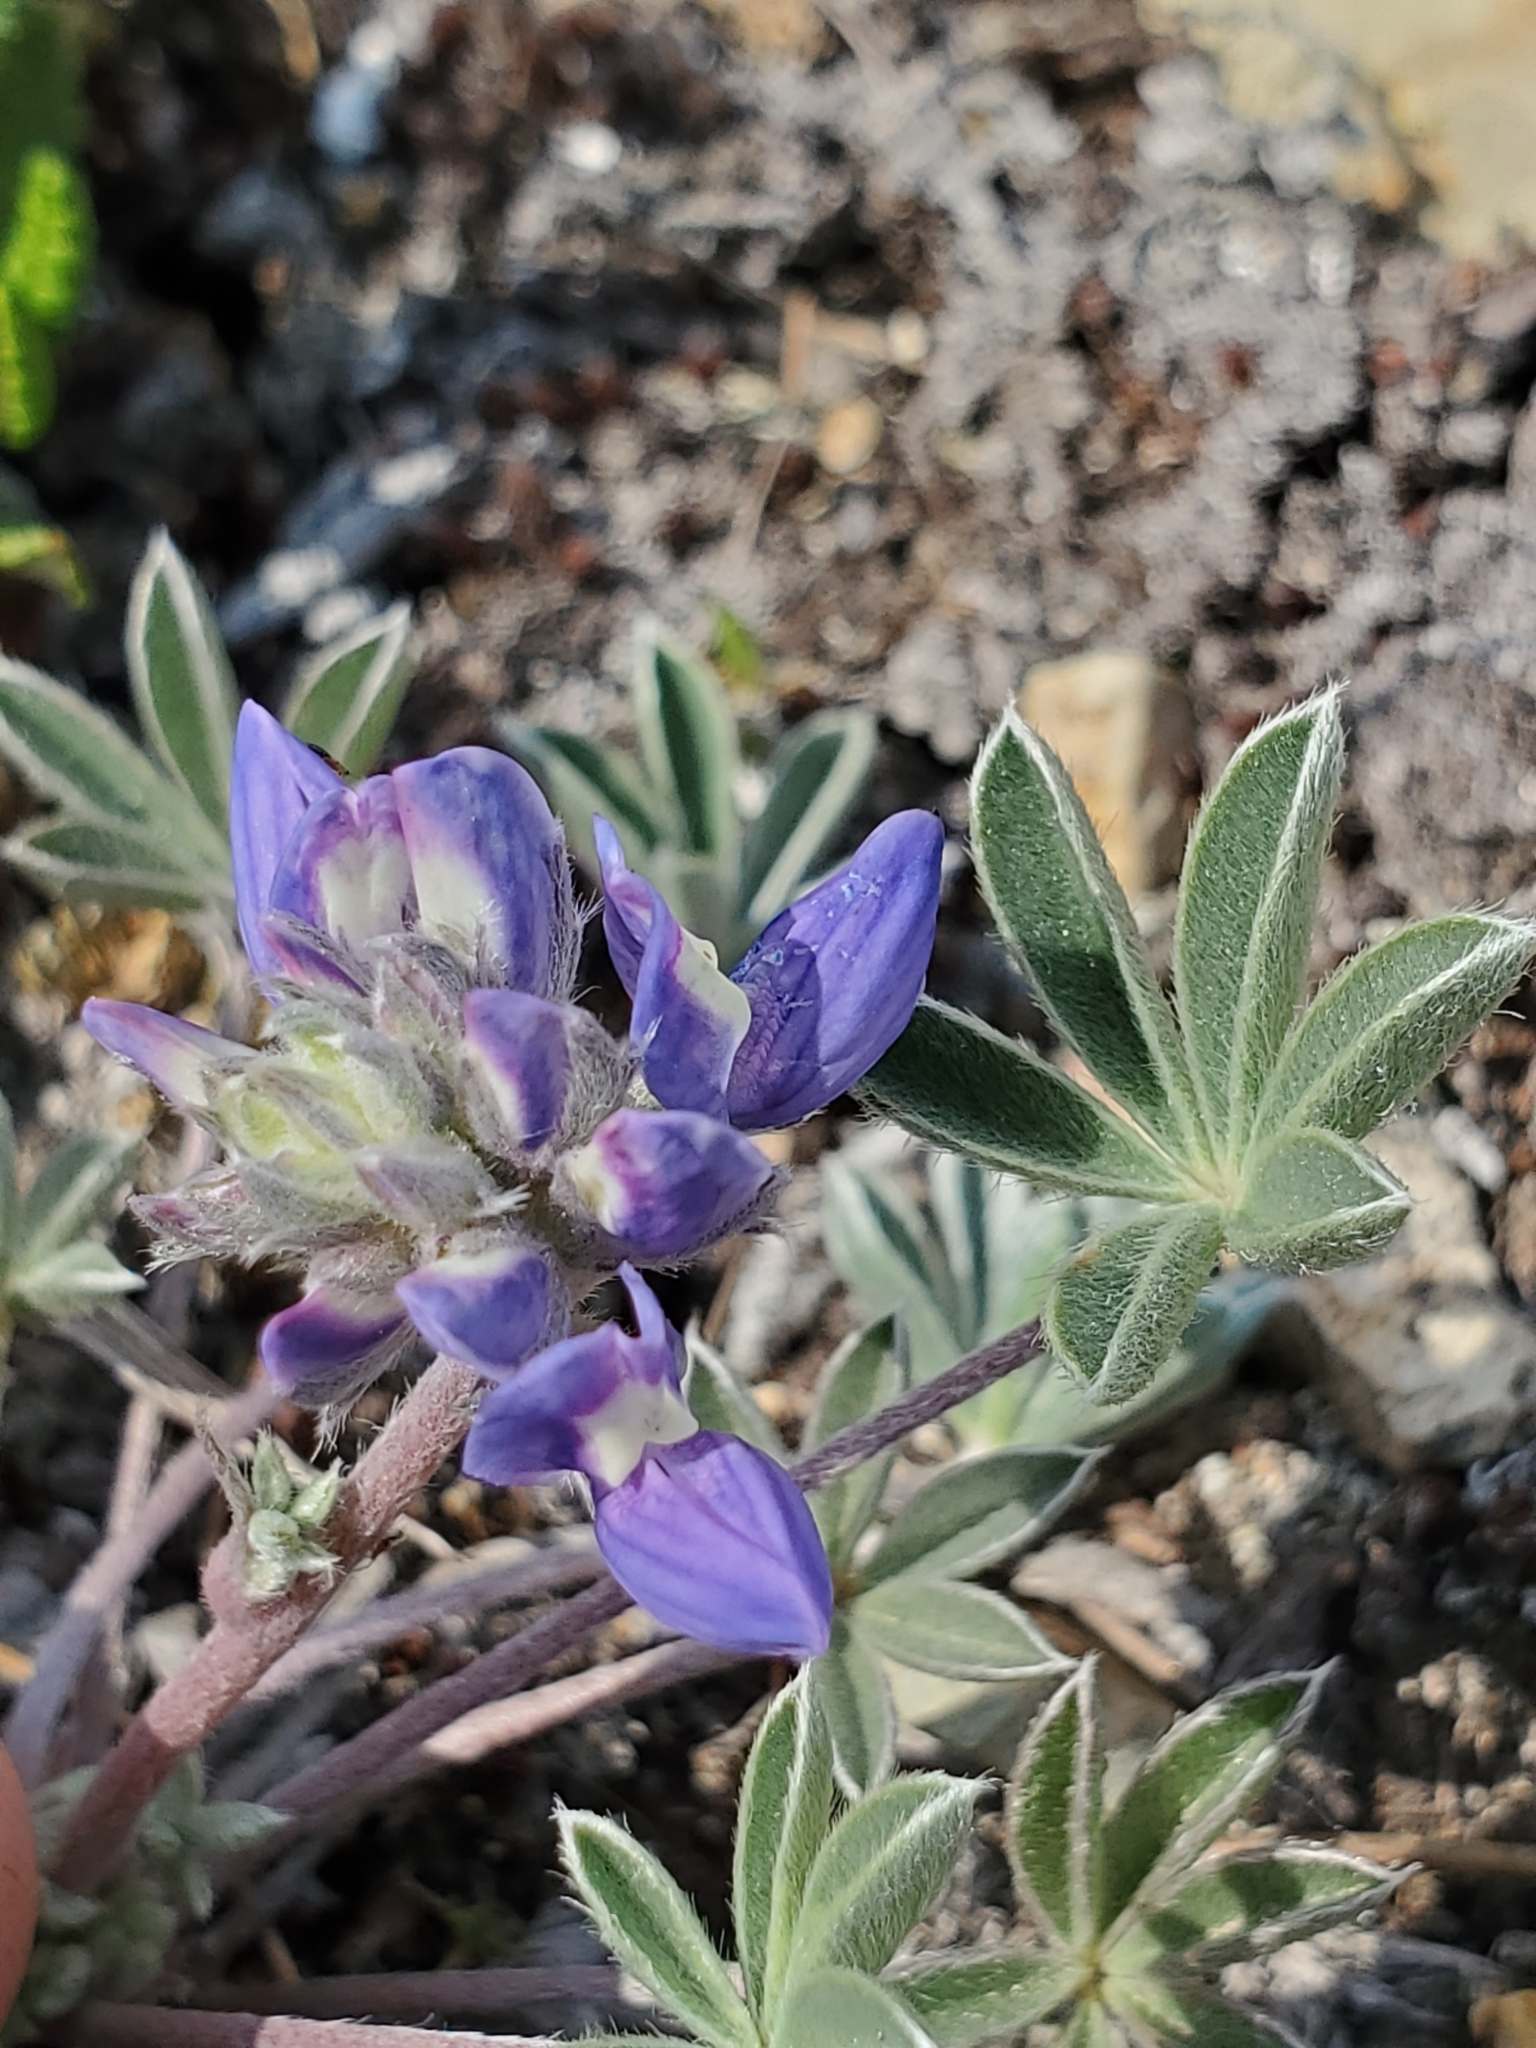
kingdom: Plantae
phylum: Tracheophyta
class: Magnoliopsida
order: Fabales
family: Fabaceae
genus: Lupinus
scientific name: Lupinus lepidus
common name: Prairie lupine
